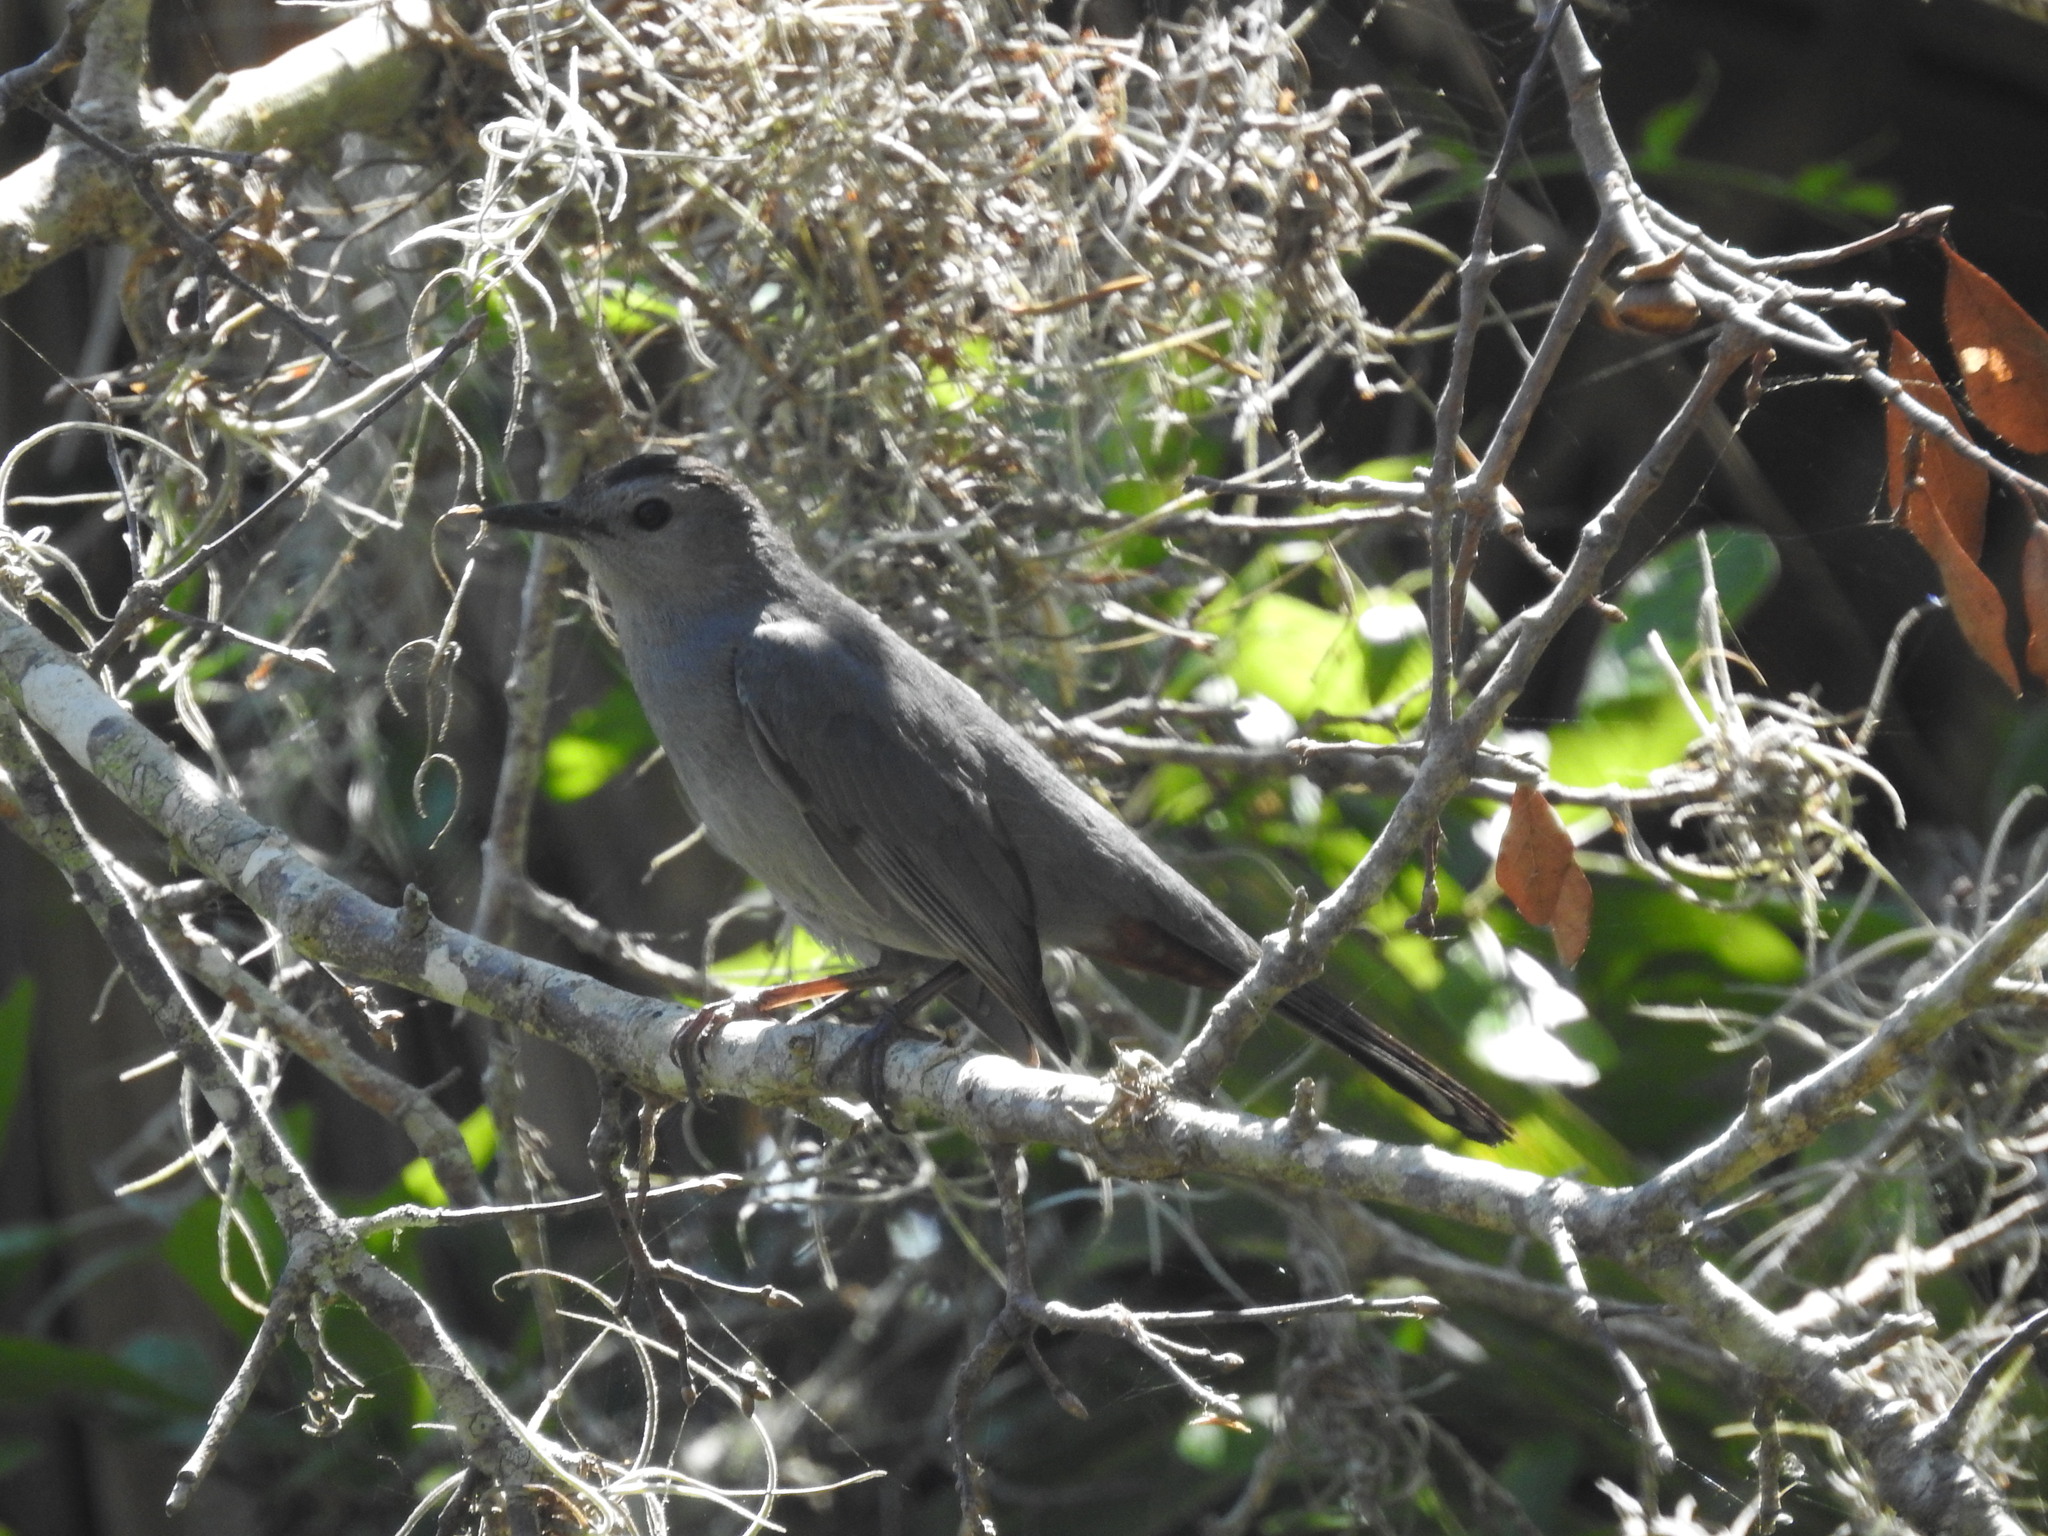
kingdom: Animalia
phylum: Chordata
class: Aves
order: Passeriformes
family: Mimidae
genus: Dumetella
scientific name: Dumetella carolinensis
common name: Gray catbird
